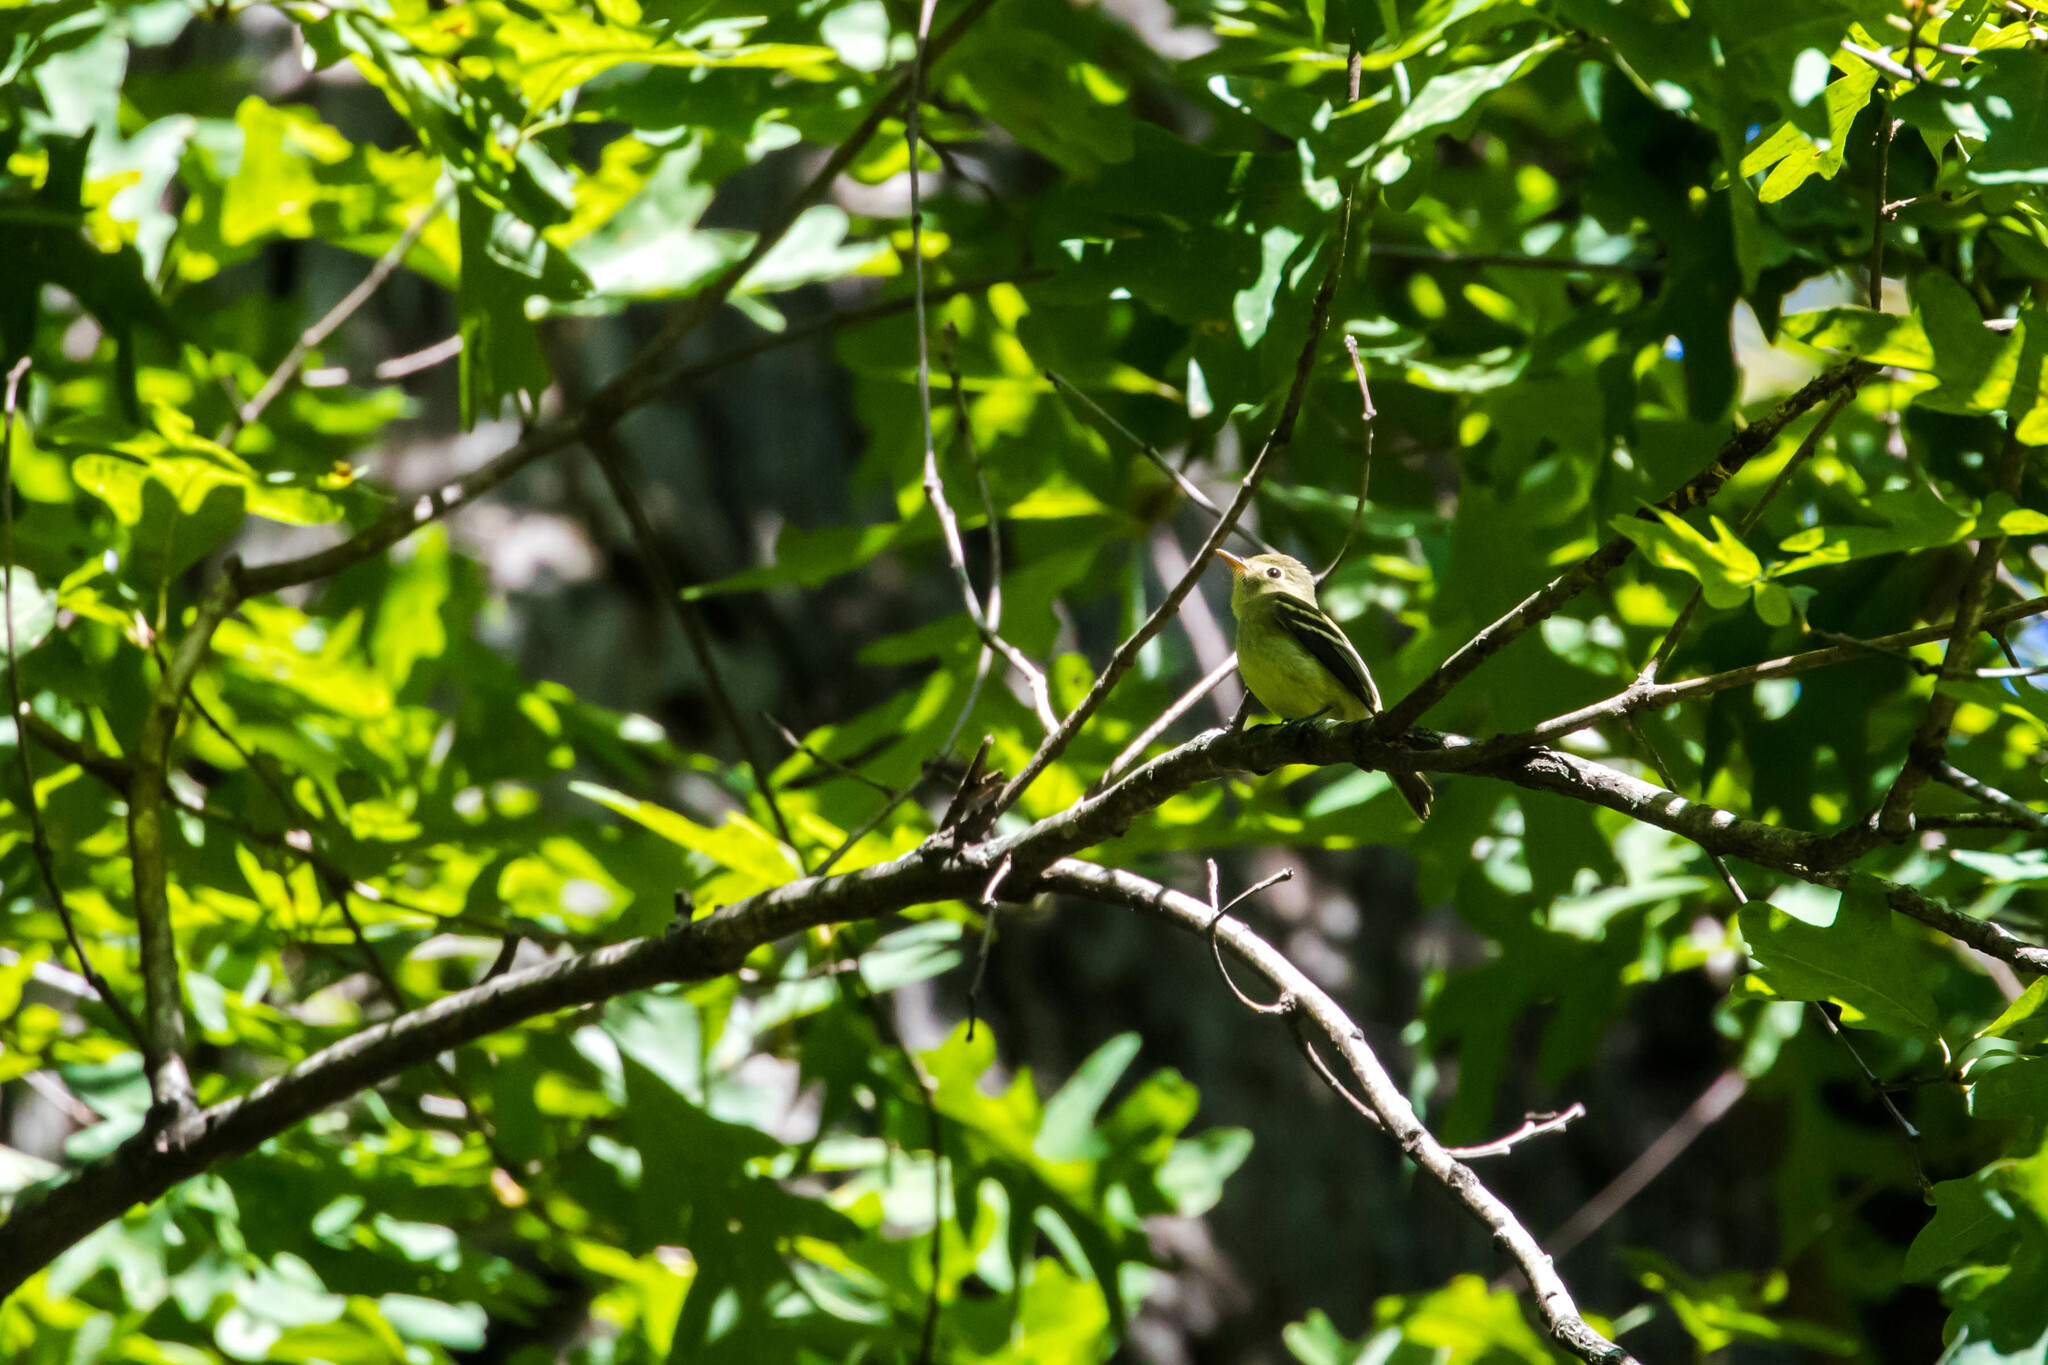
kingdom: Animalia
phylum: Chordata
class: Aves
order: Passeriformes
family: Tyrannidae
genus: Empidonax
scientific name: Empidonax flaviventris
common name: Yellow-bellied flycatcher
